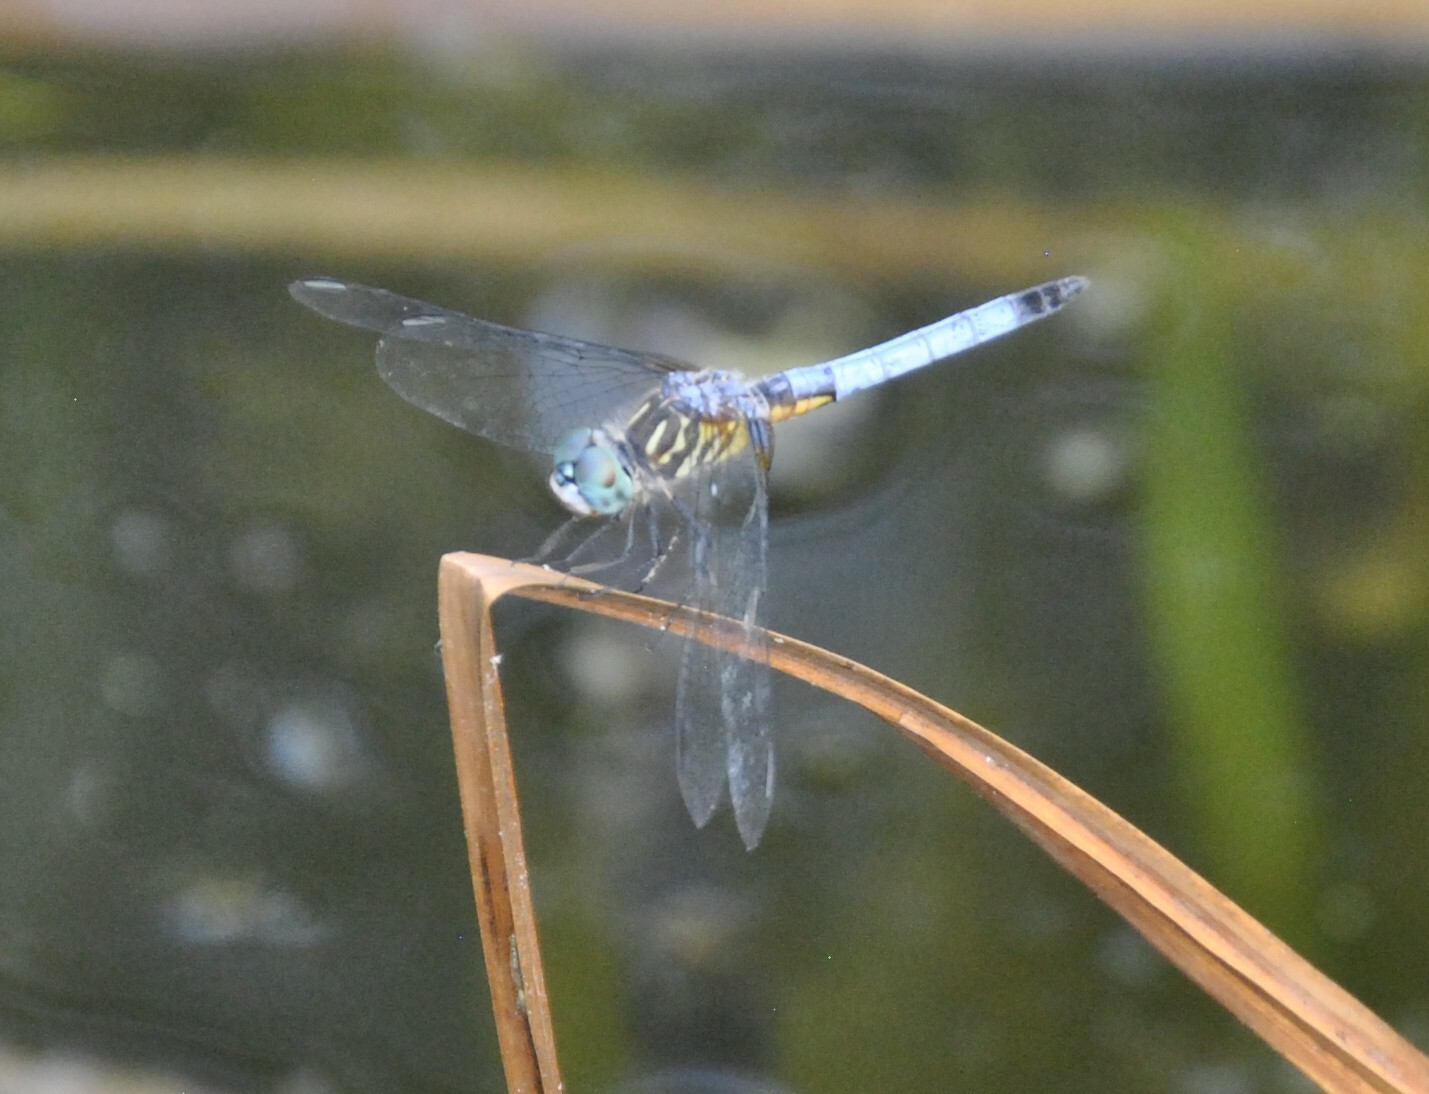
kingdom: Animalia
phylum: Arthropoda
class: Insecta
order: Odonata
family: Libellulidae
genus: Pachydiplax
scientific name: Pachydiplax longipennis
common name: Blue dasher
